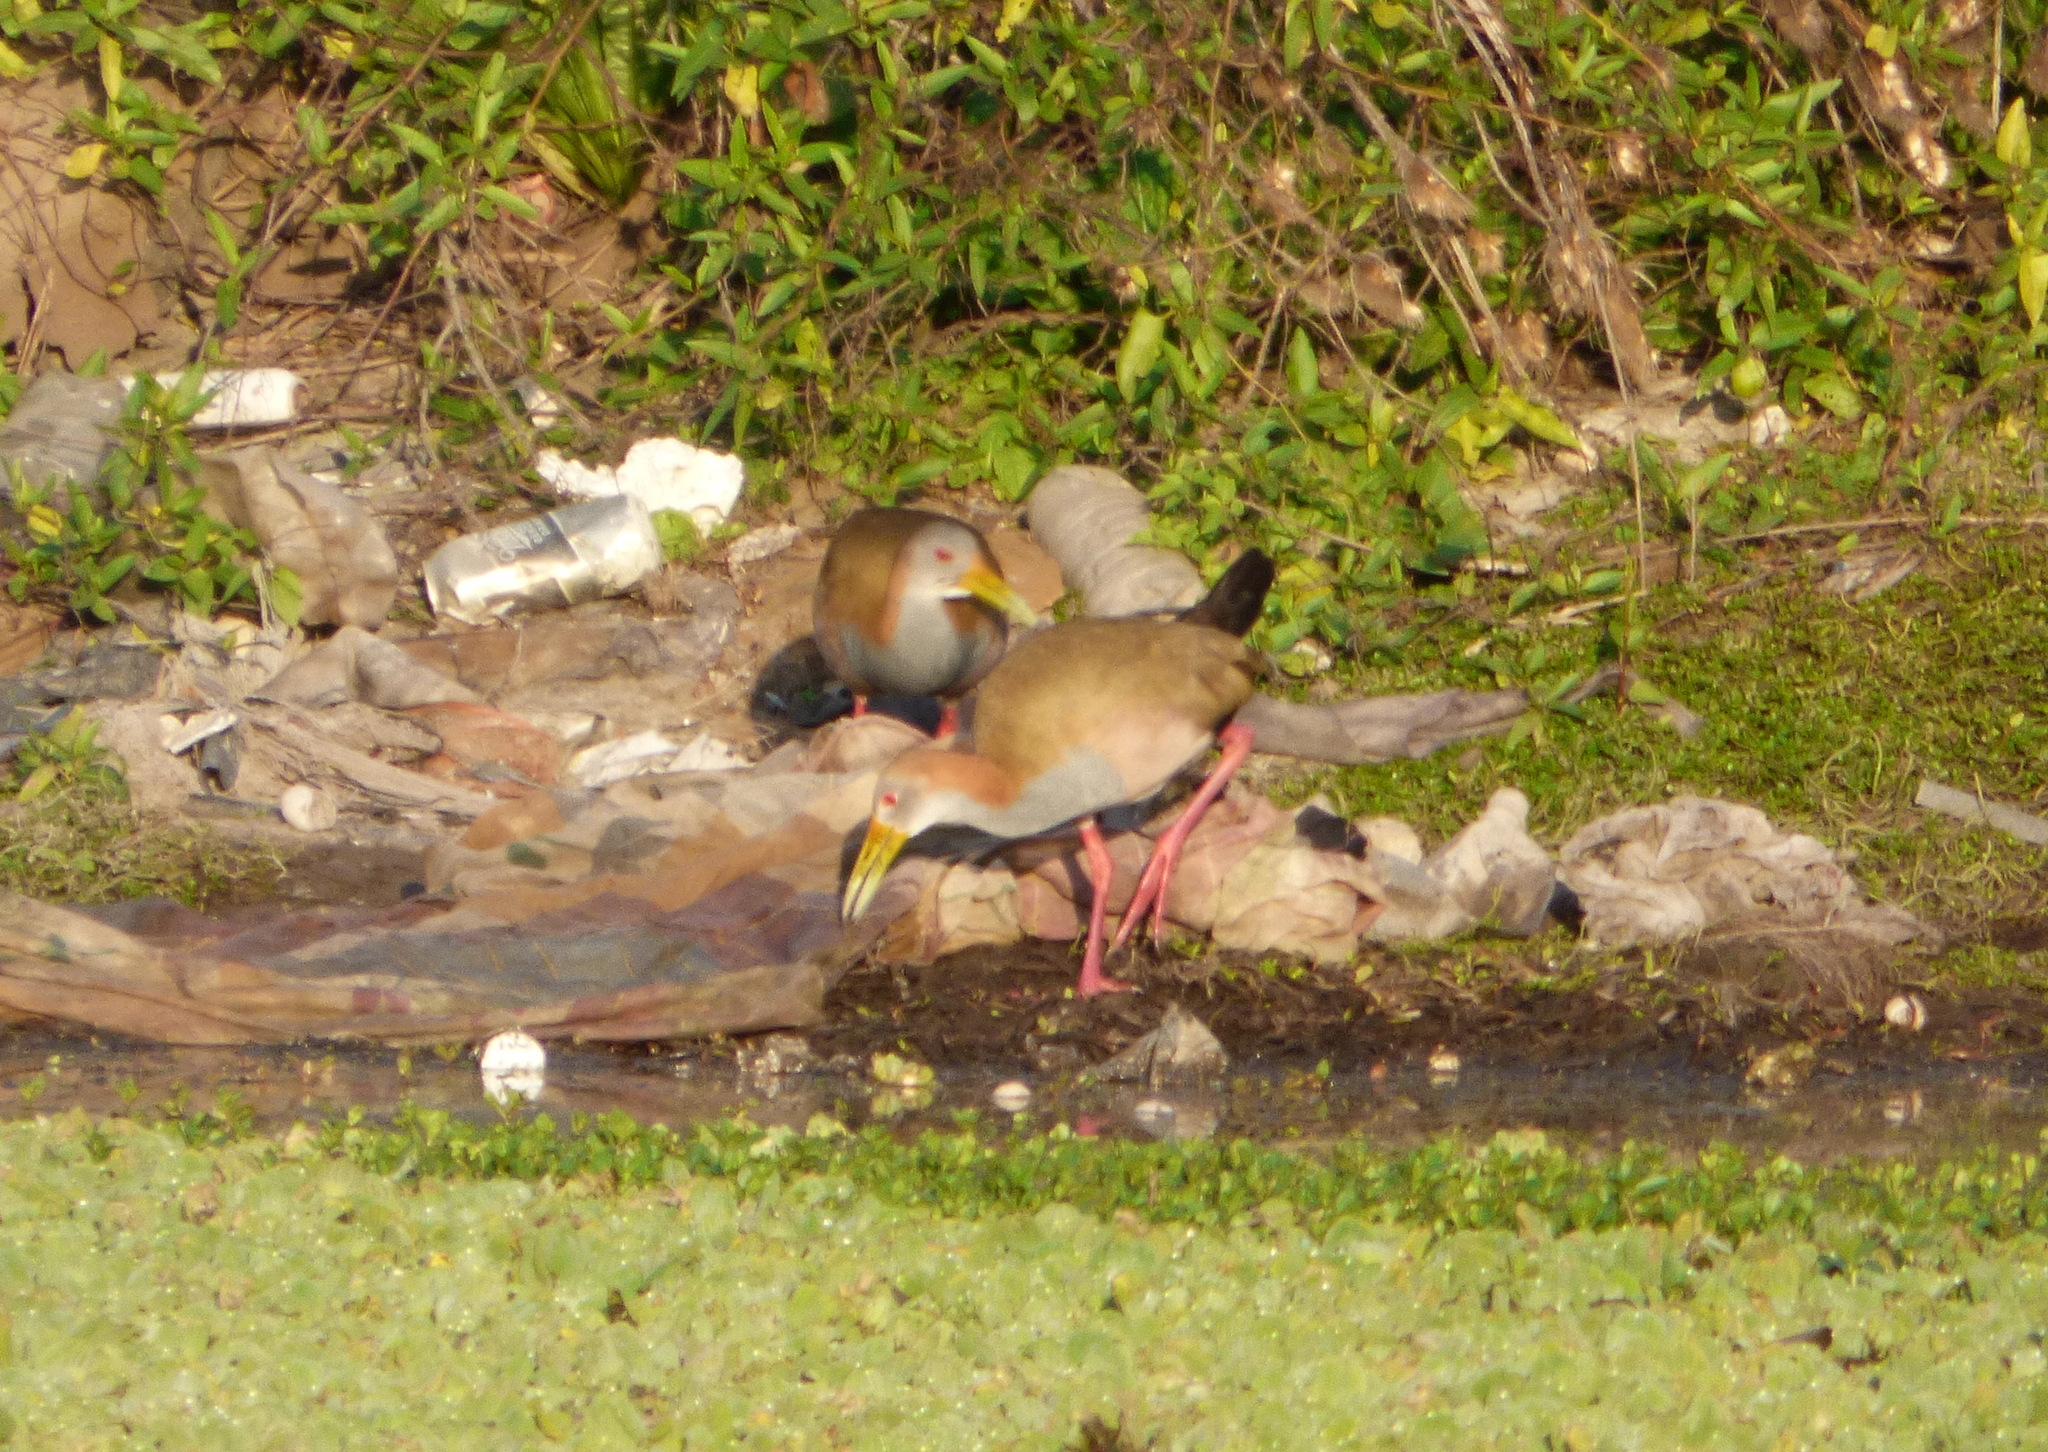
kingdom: Animalia
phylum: Chordata
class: Aves
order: Gruiformes
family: Rallidae
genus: Aramides
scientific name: Aramides ypecaha
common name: Giant wood rail
